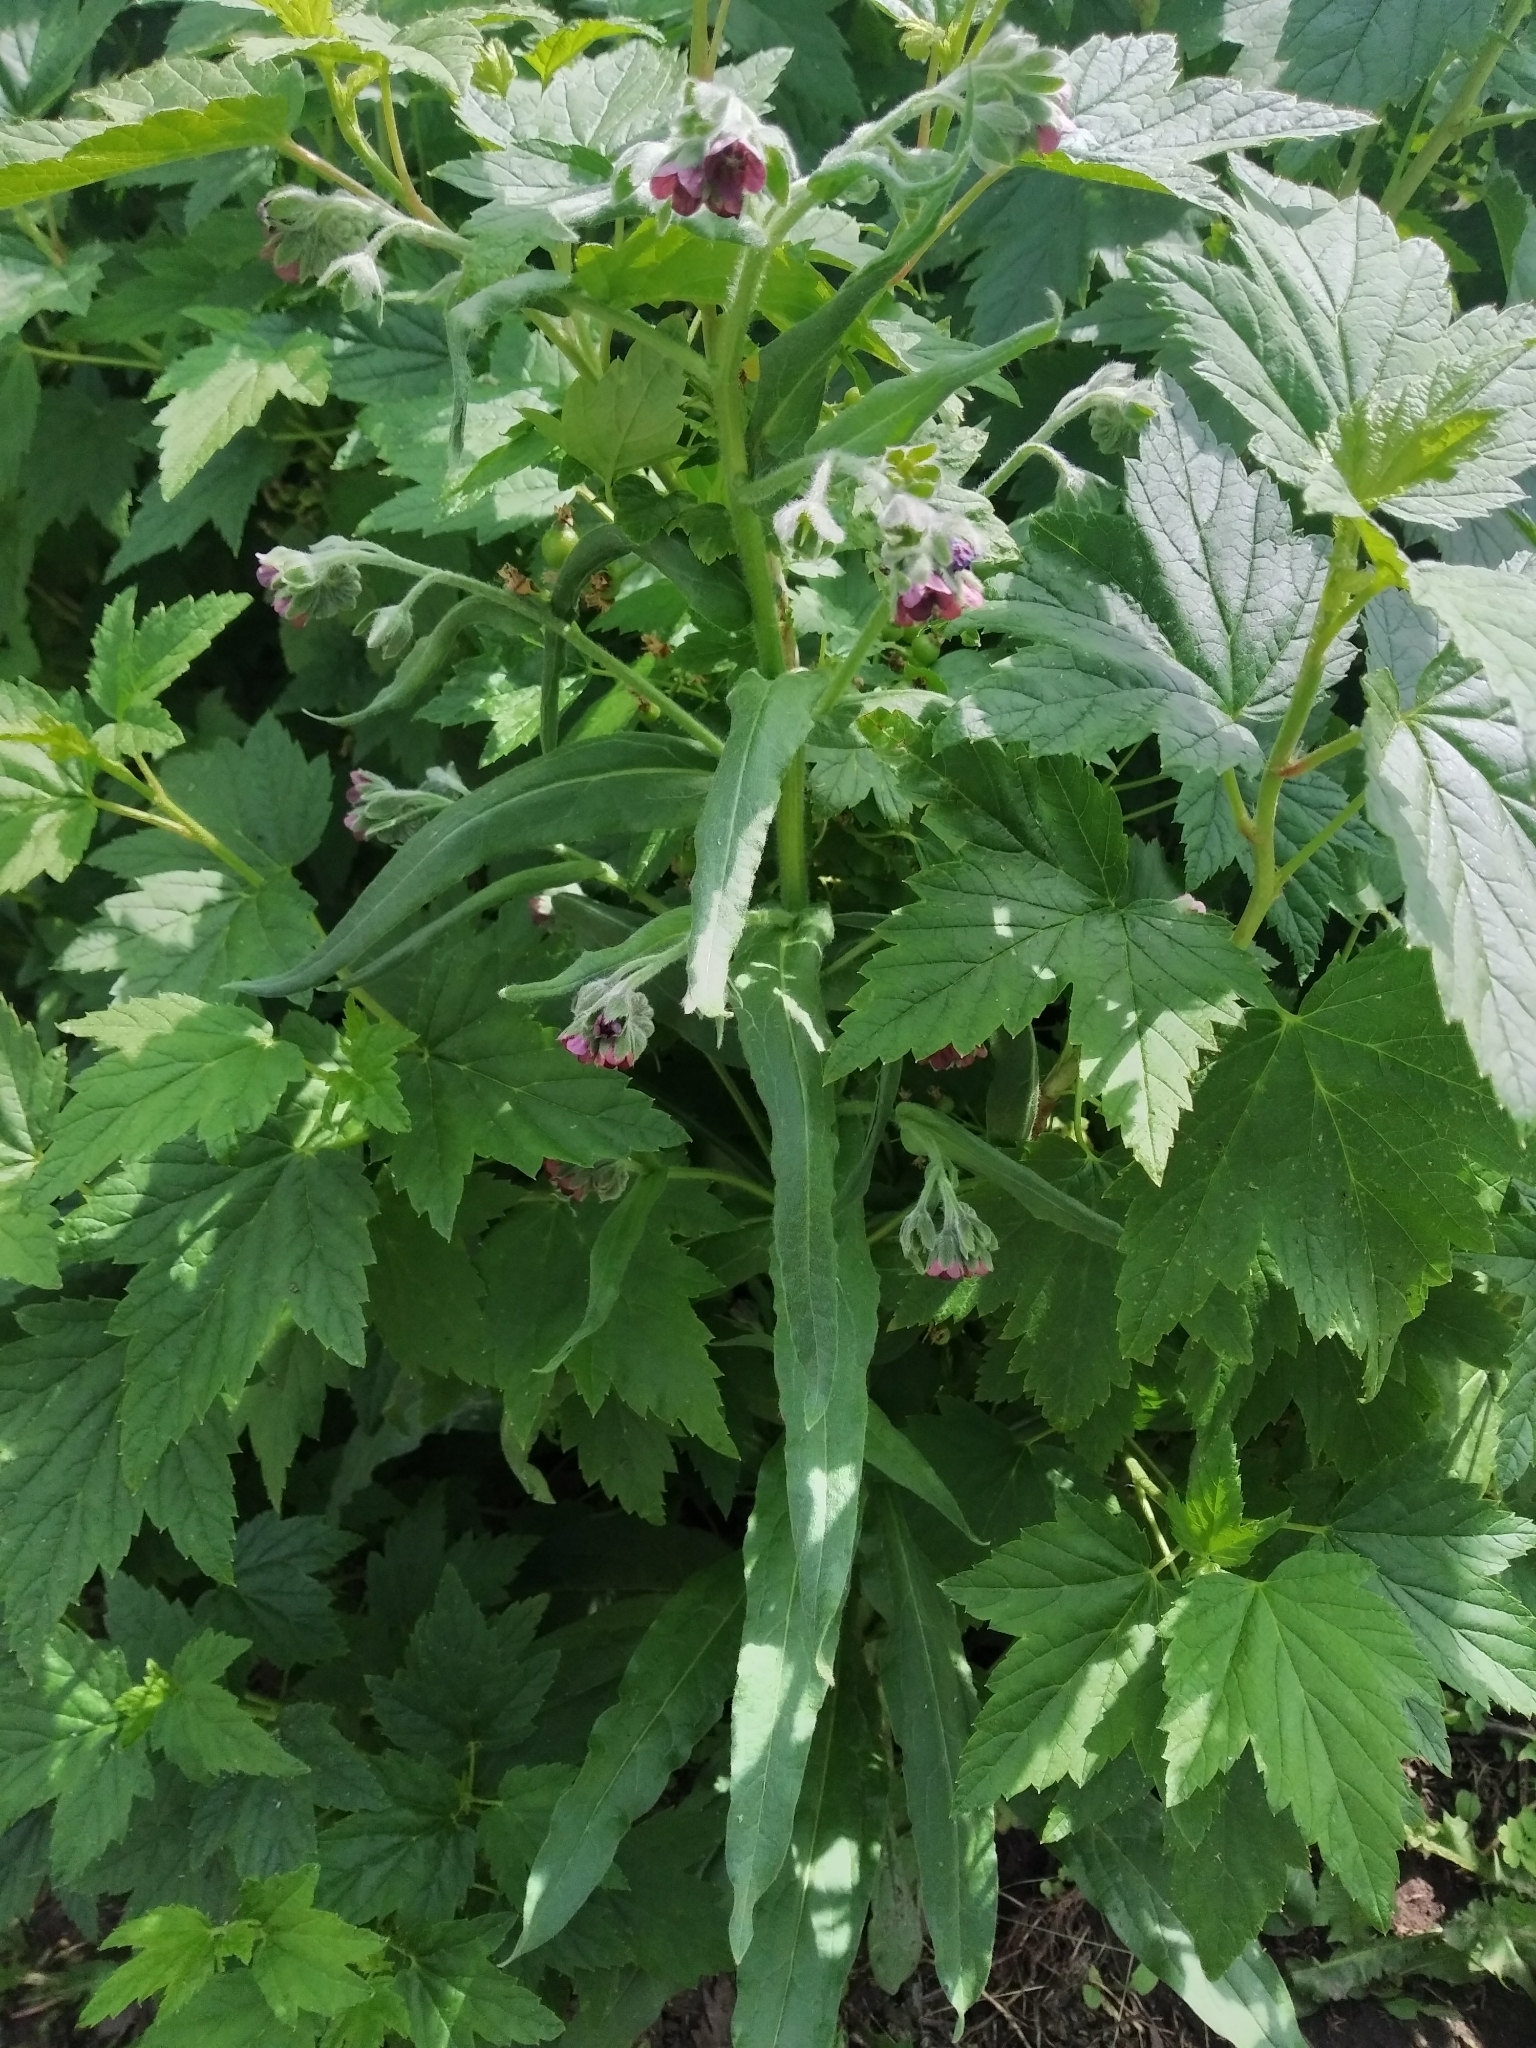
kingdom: Plantae
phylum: Tracheophyta
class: Magnoliopsida
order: Boraginales
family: Boraginaceae
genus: Cynoglossum
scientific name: Cynoglossum officinale
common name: Hound's-tongue
